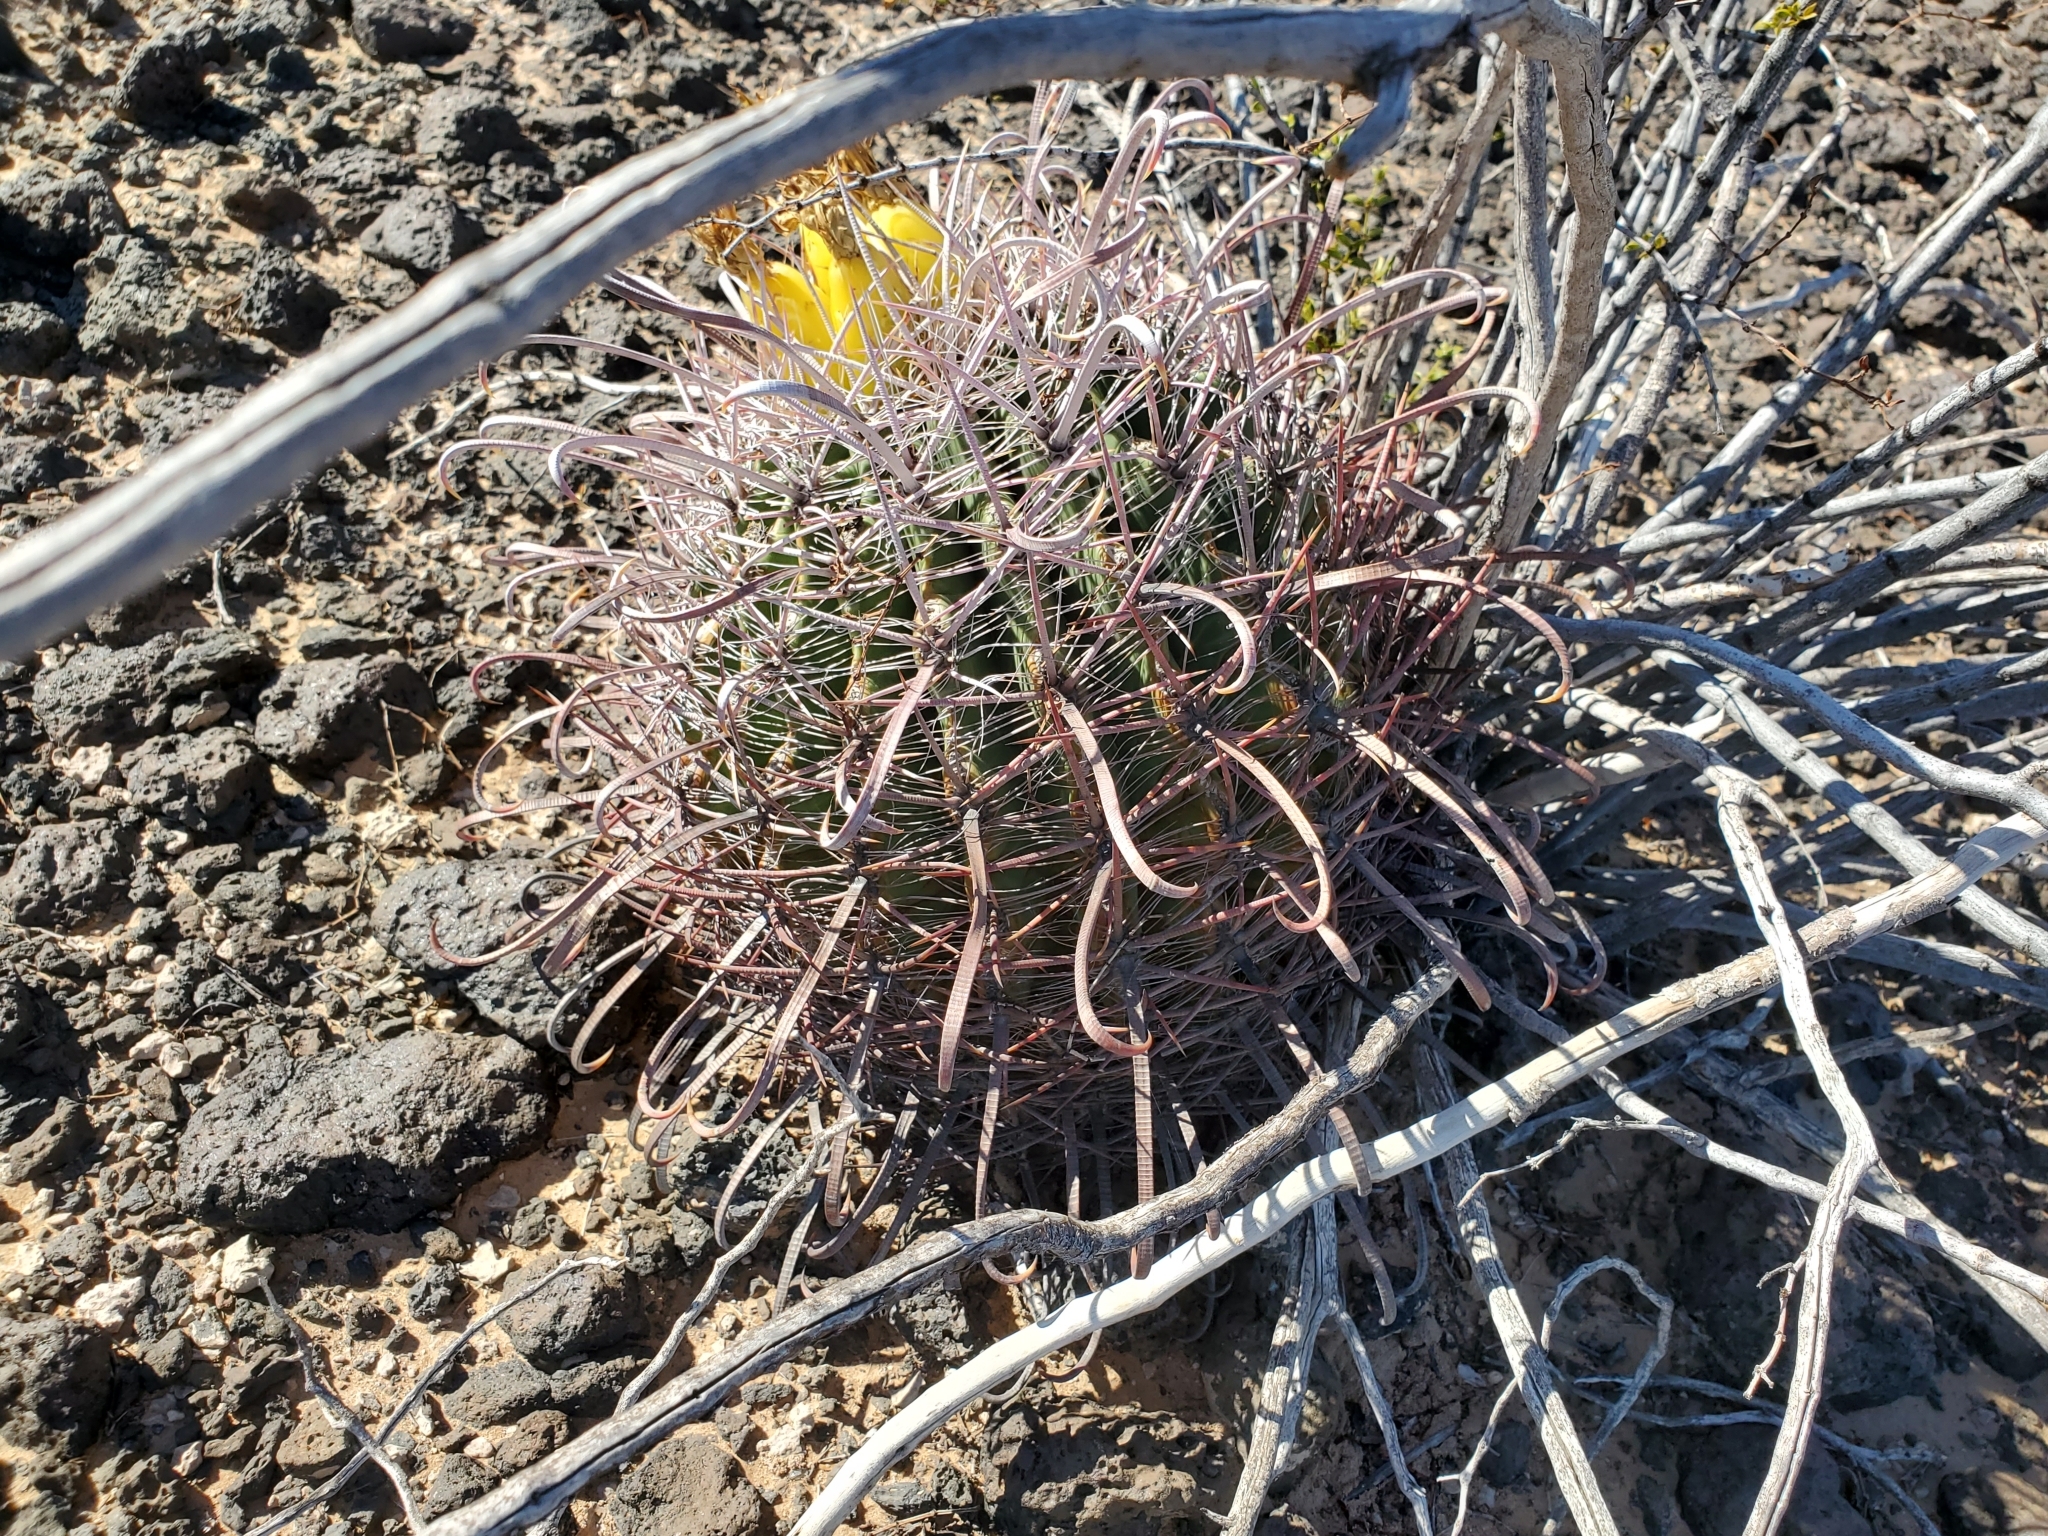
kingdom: Plantae
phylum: Tracheophyta
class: Magnoliopsida
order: Caryophyllales
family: Cactaceae
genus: Ferocactus
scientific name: Ferocactus cylindraceus
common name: California barrel cactus
